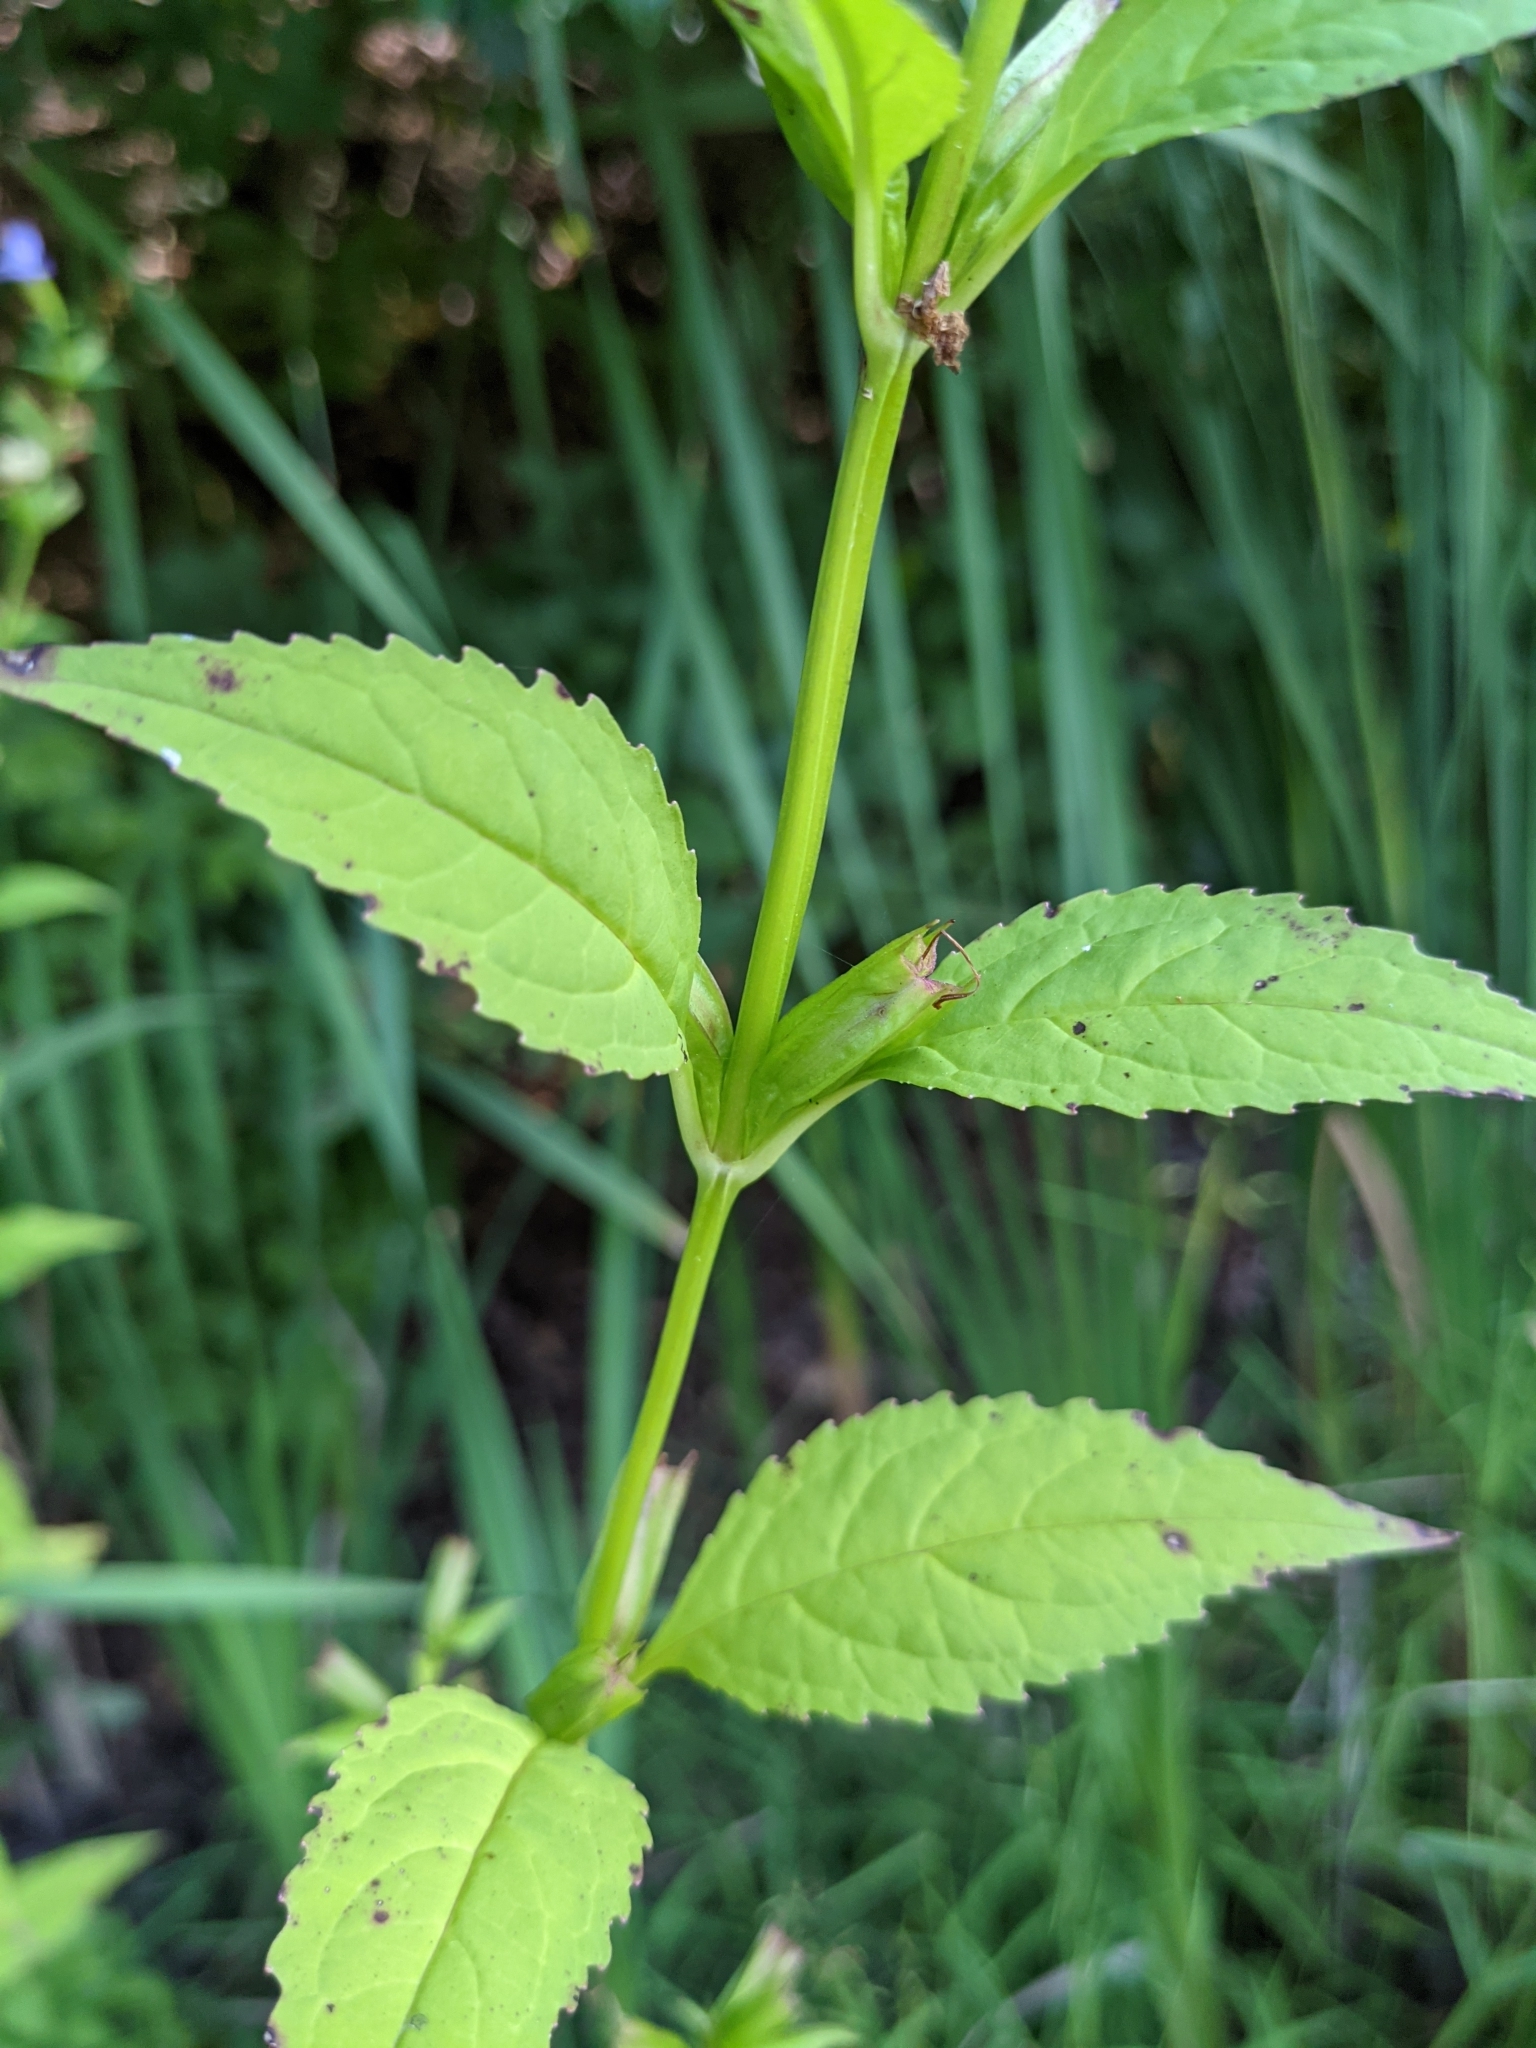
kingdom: Plantae
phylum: Tracheophyta
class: Magnoliopsida
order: Lamiales
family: Phrymaceae
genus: Mimulus
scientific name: Mimulus alatus
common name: Sharp-wing monkey-flower
